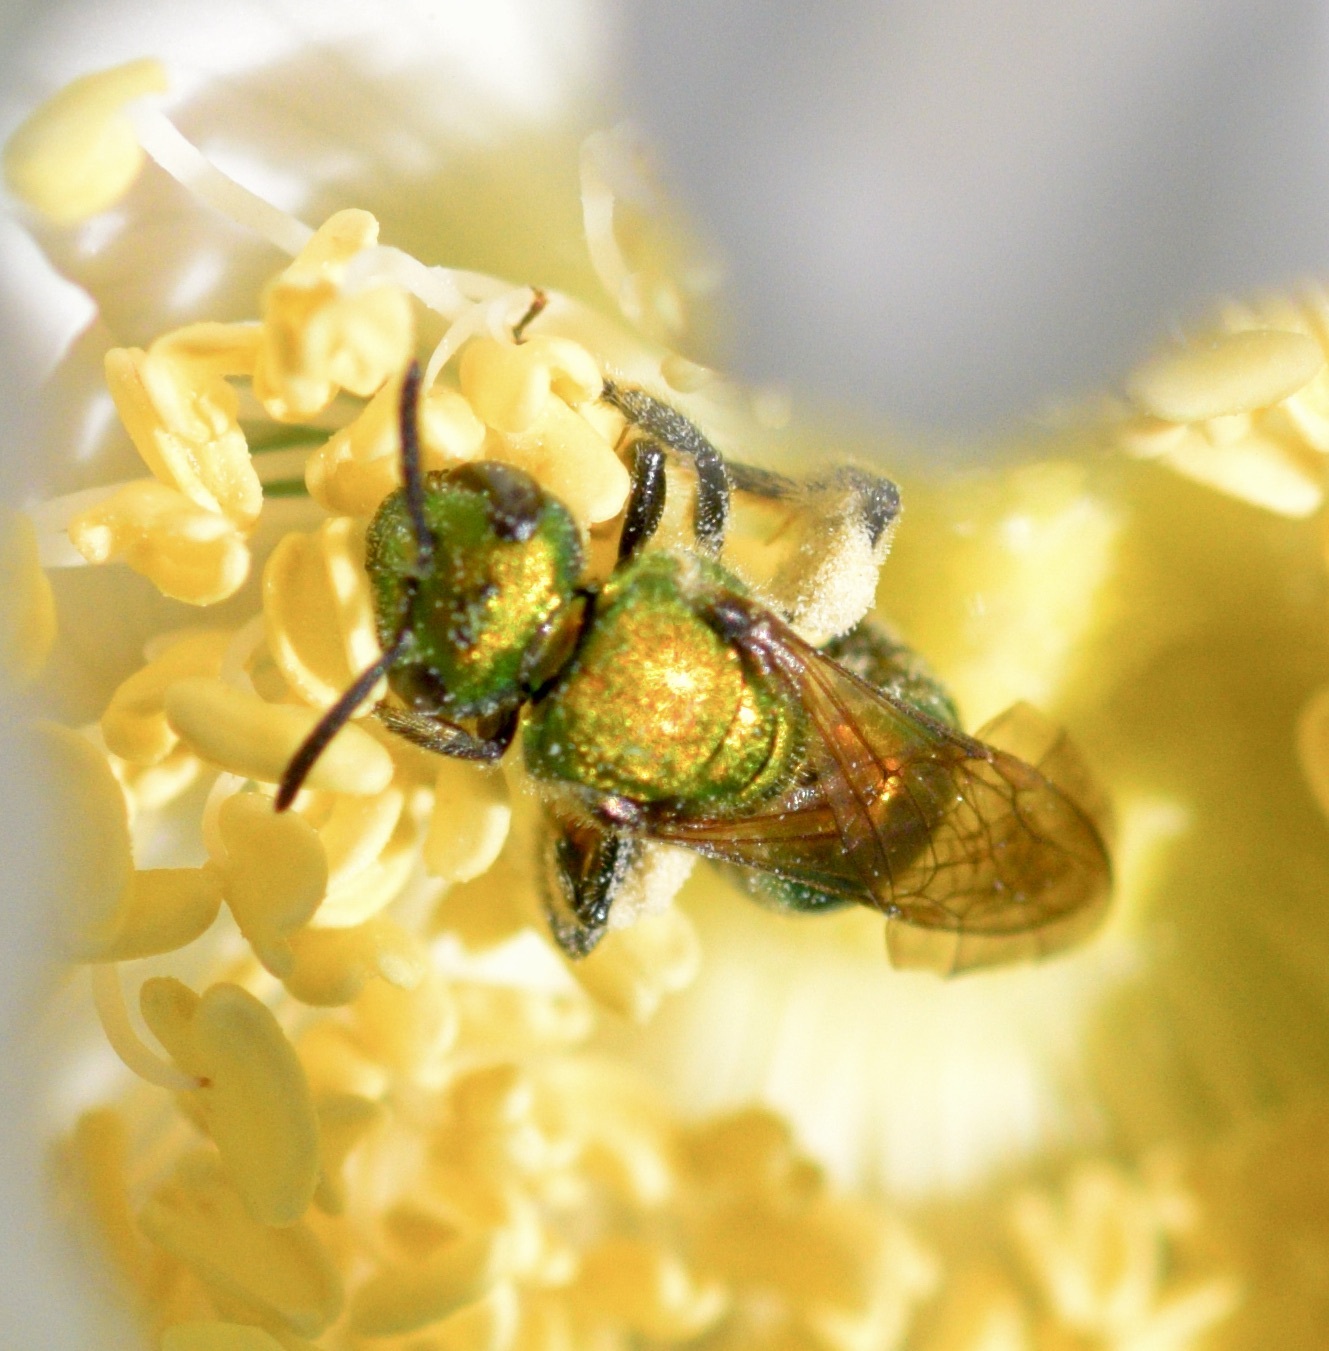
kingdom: Animalia
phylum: Arthropoda
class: Insecta
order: Hymenoptera
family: Halictidae
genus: Augochlora
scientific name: Augochlora pura
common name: Pure green sweat bee
